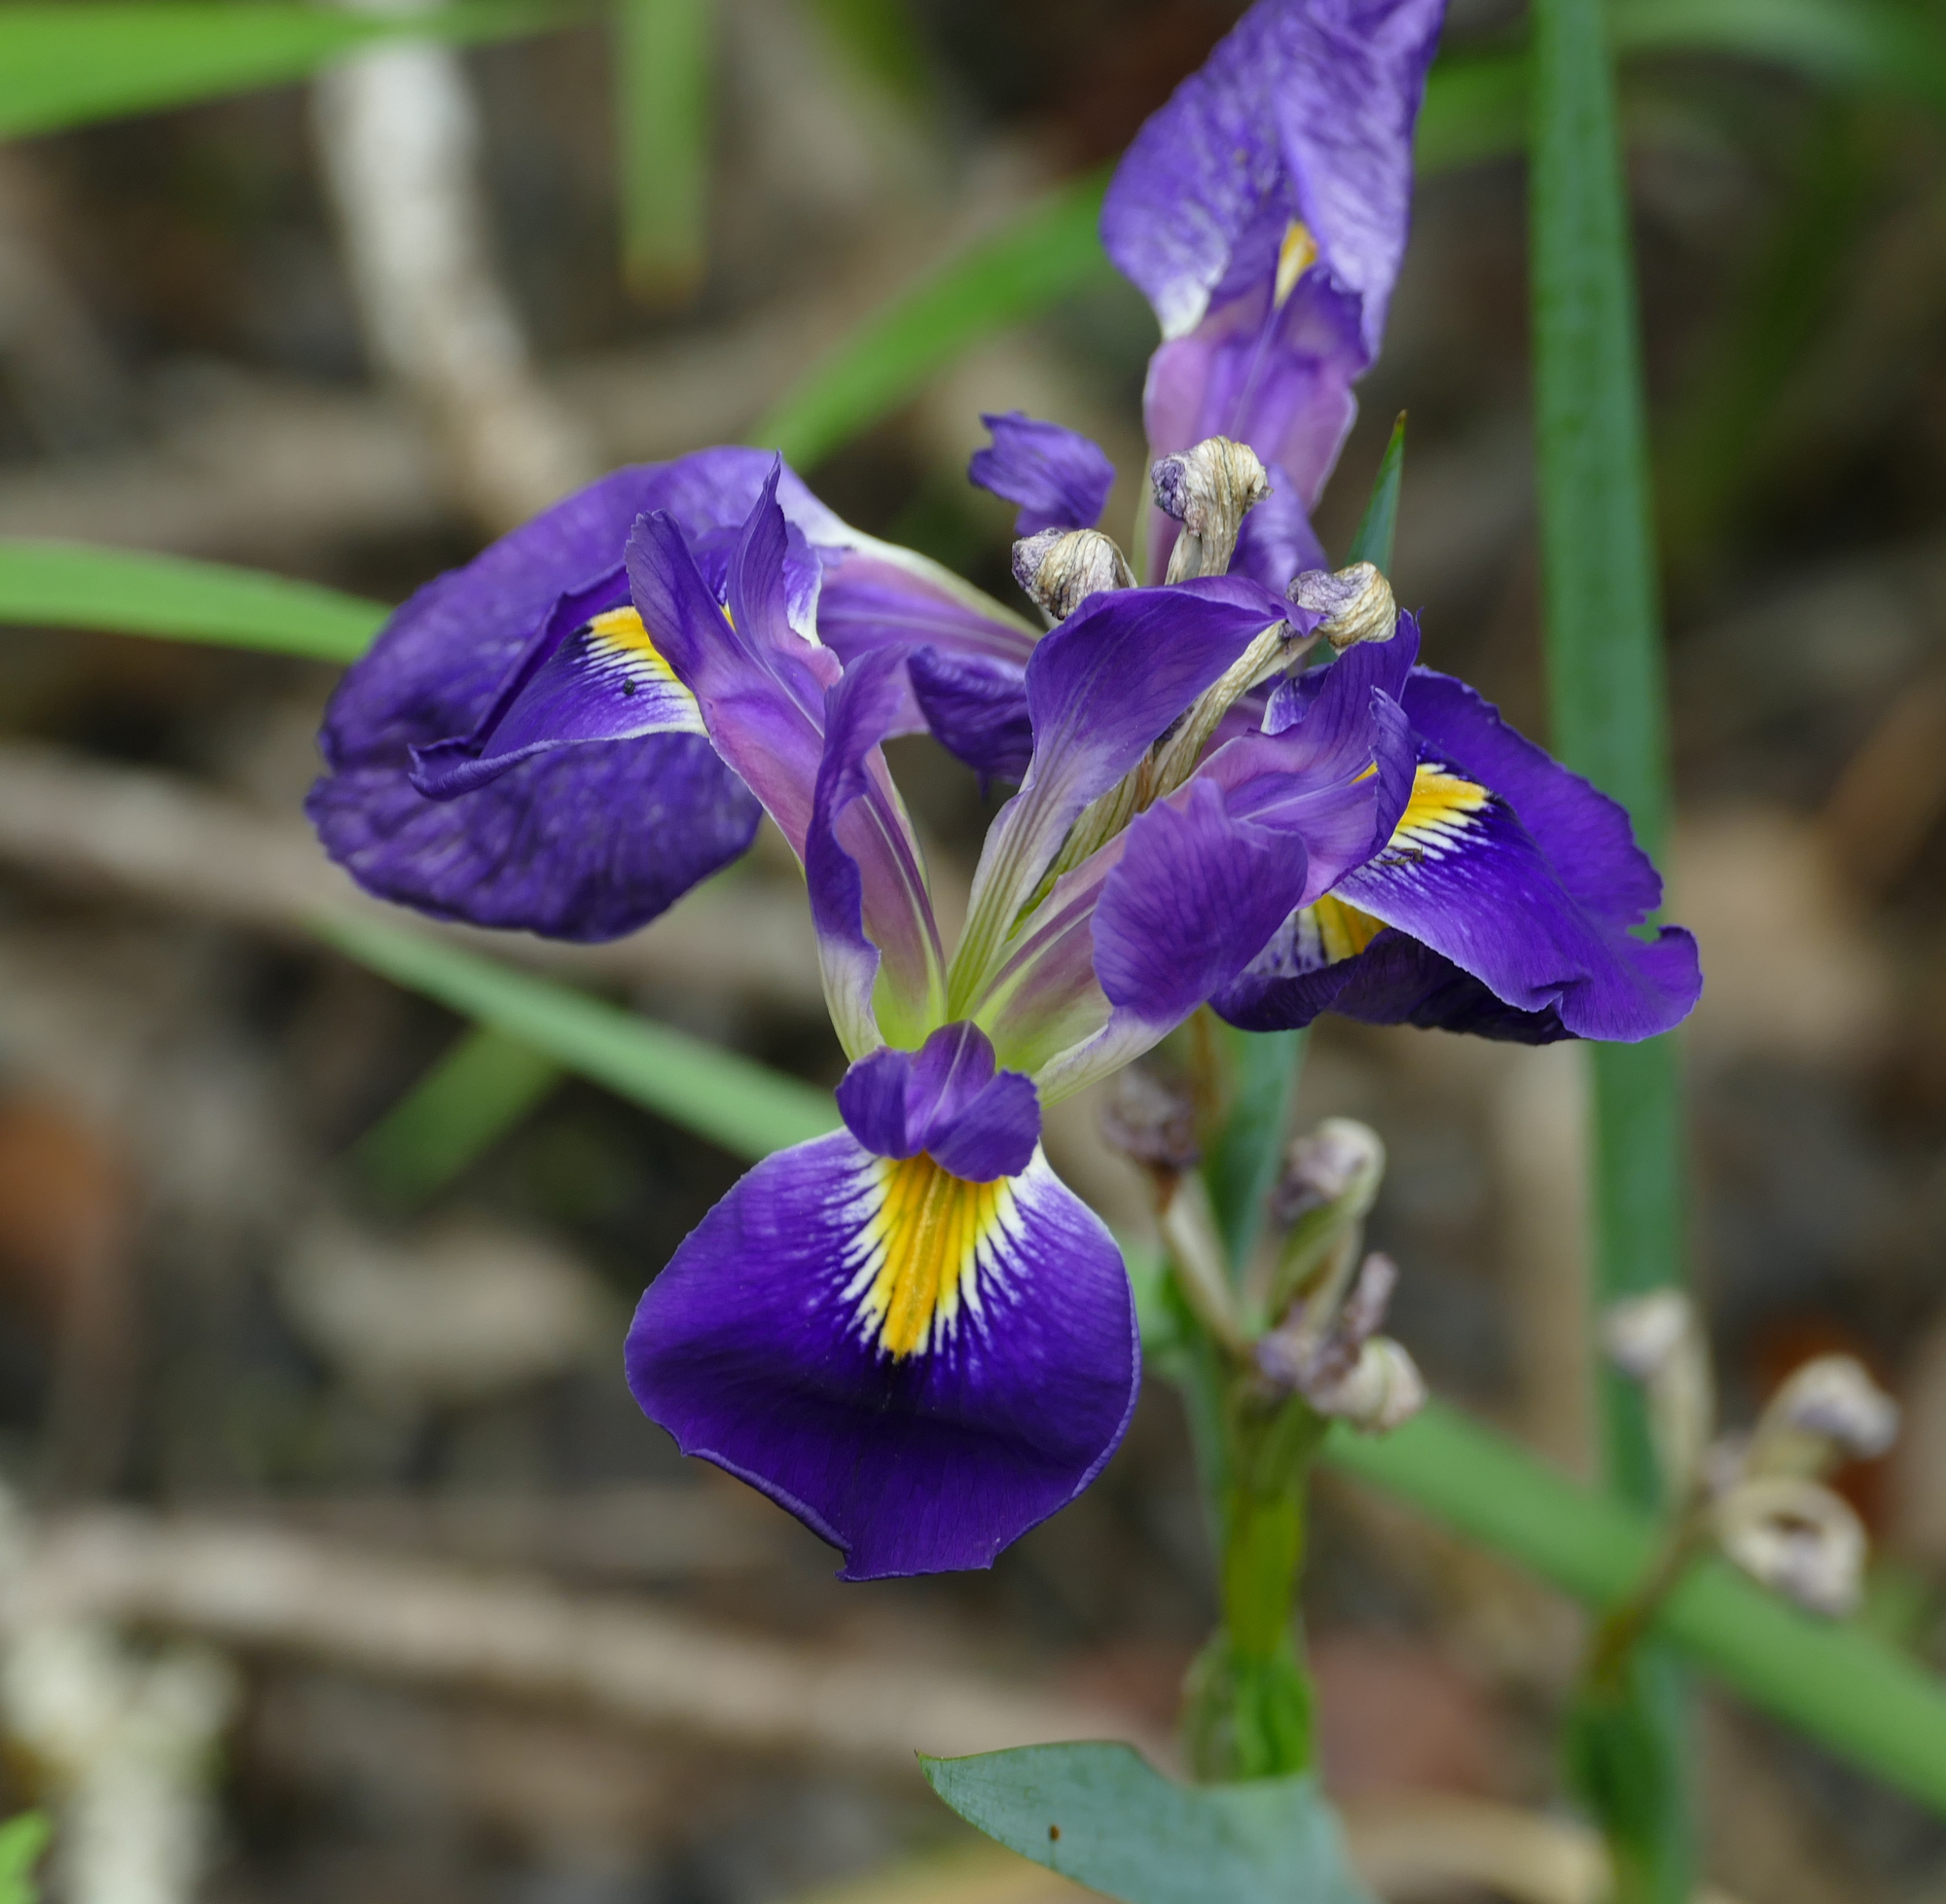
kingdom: Plantae
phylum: Tracheophyta
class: Liliopsida
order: Asparagales
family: Iridaceae
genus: Iris
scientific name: Iris brevicaulis
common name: Zigzag iris
